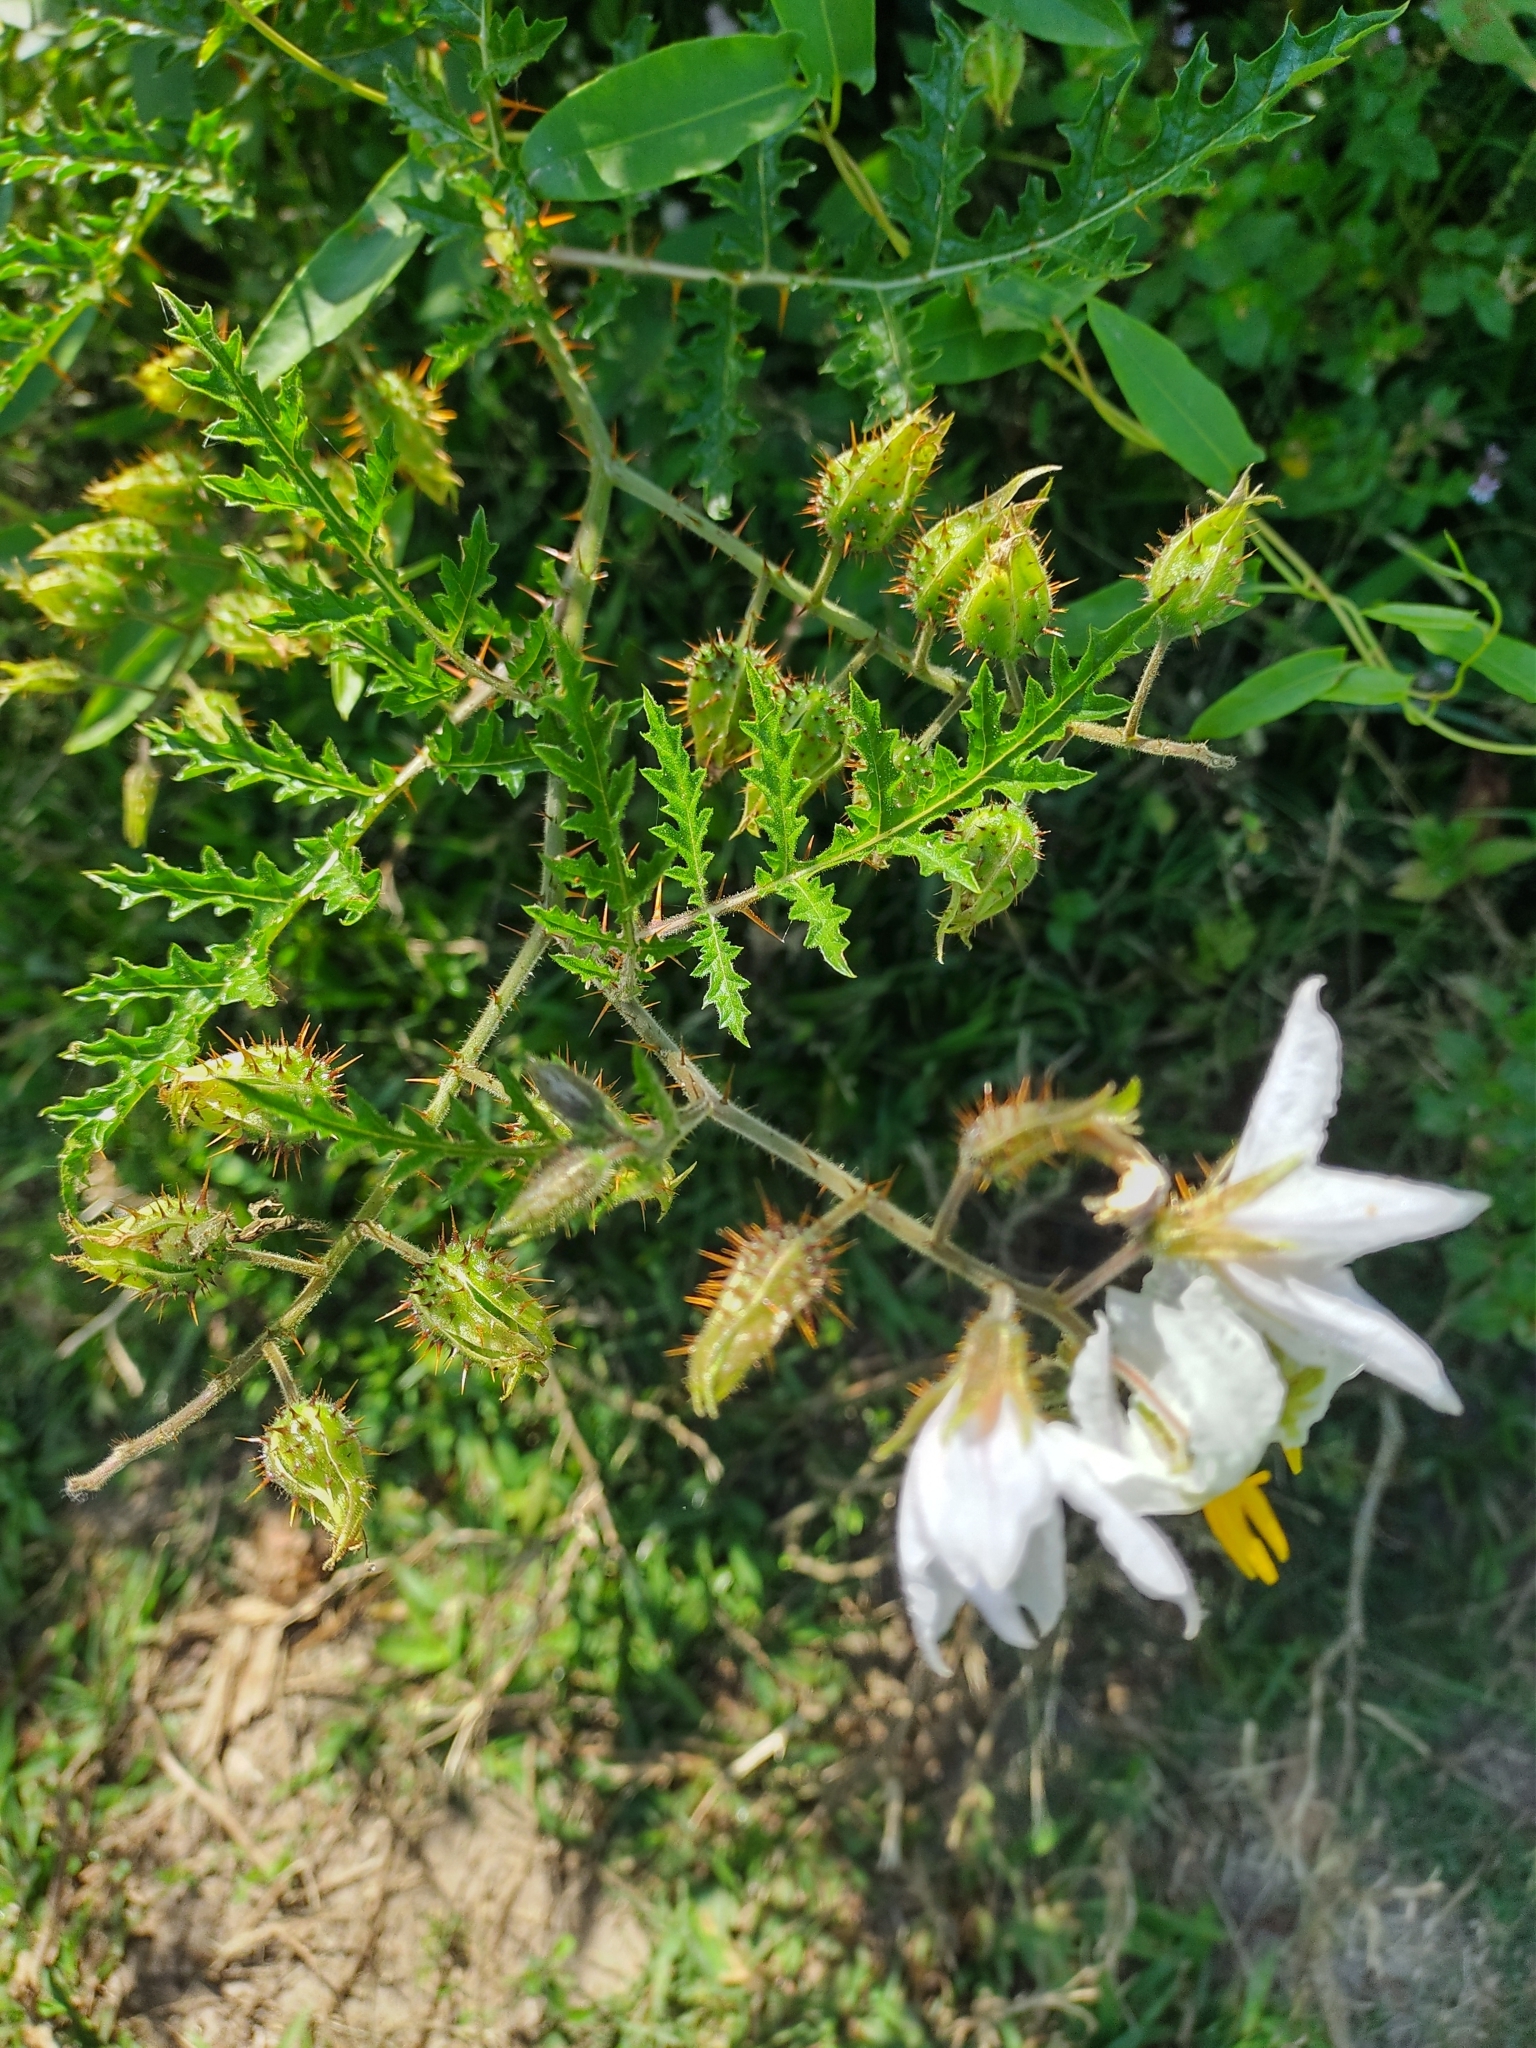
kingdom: Plantae
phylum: Tracheophyta
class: Magnoliopsida
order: Solanales
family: Solanaceae
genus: Solanum
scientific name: Solanum sisymbriifolium
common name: Red buffalo-bur
